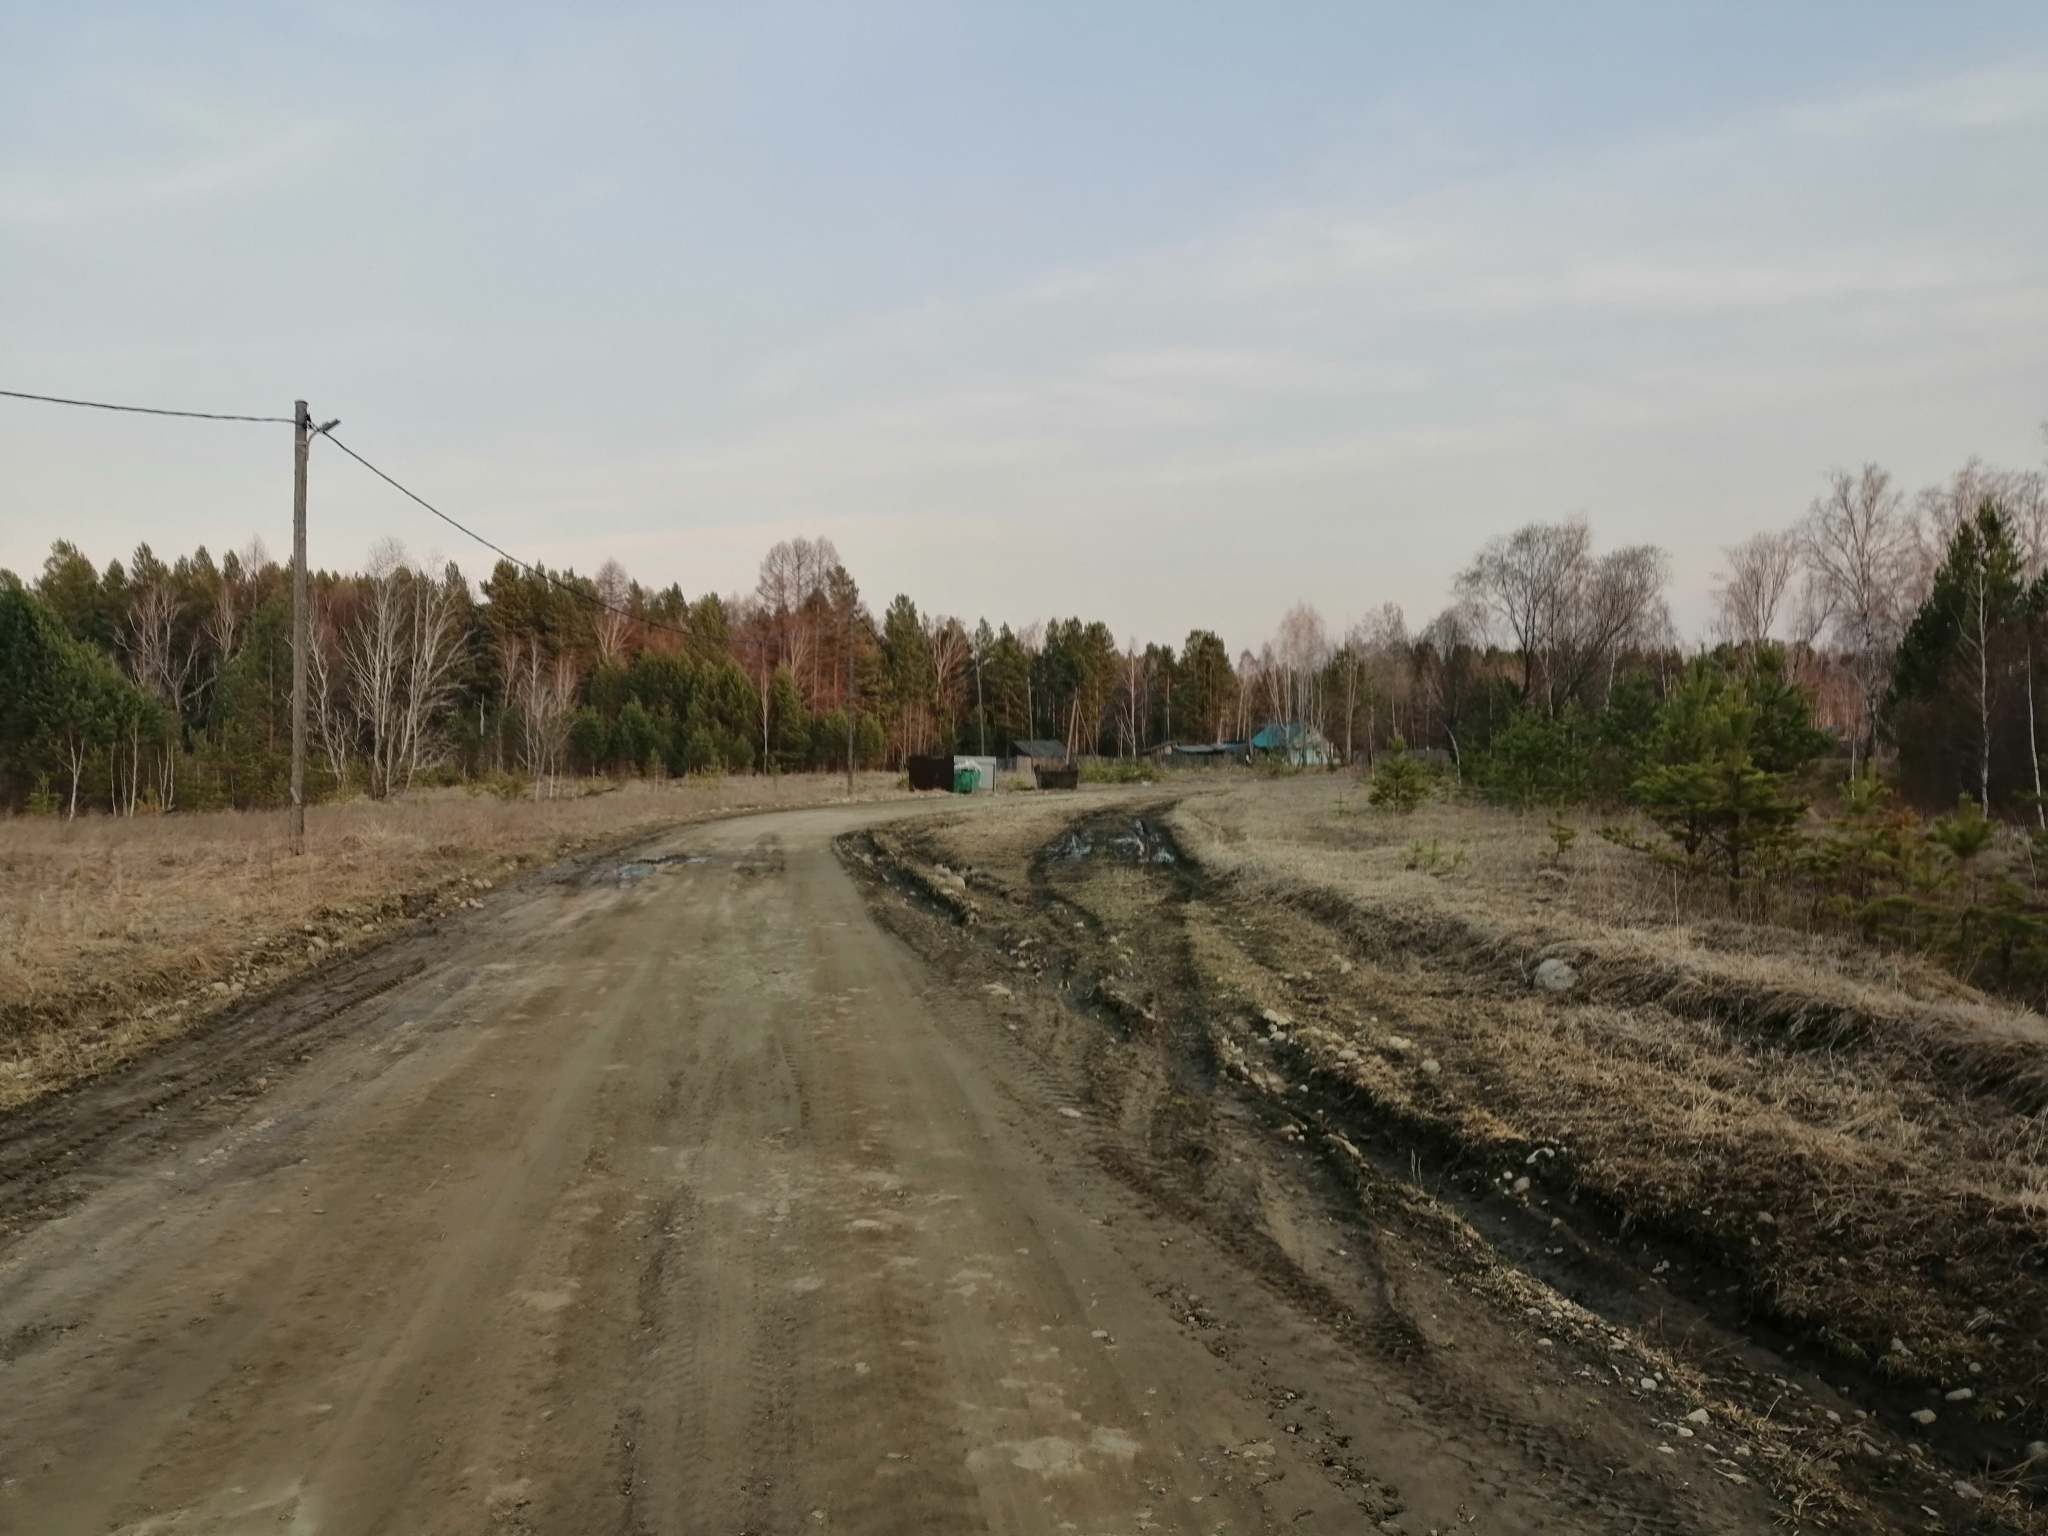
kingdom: Plantae
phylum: Tracheophyta
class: Pinopsida
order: Pinales
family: Pinaceae
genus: Pinus
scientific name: Pinus sylvestris
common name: Scots pine
